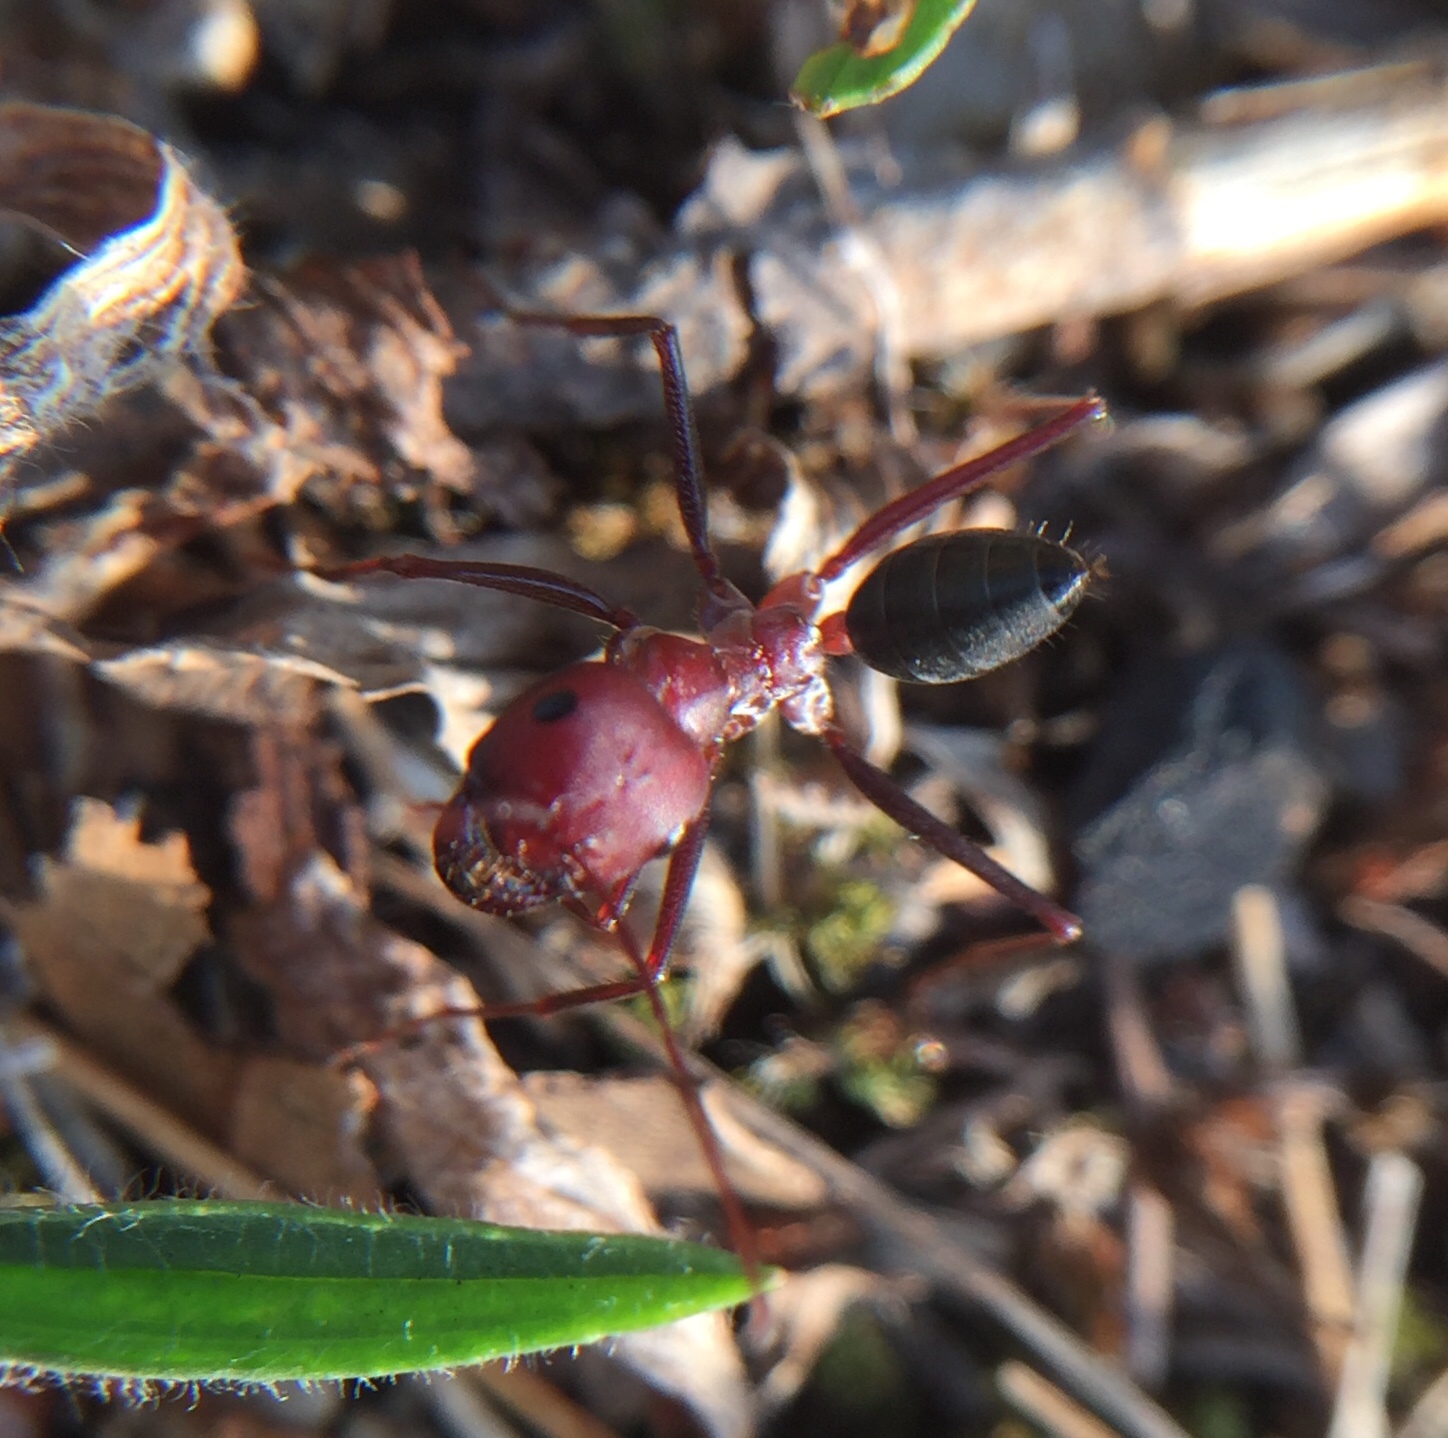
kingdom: Animalia
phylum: Arthropoda
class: Insecta
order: Hymenoptera
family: Formicidae
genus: Cataglyphis
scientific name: Cataglyphis nodus
